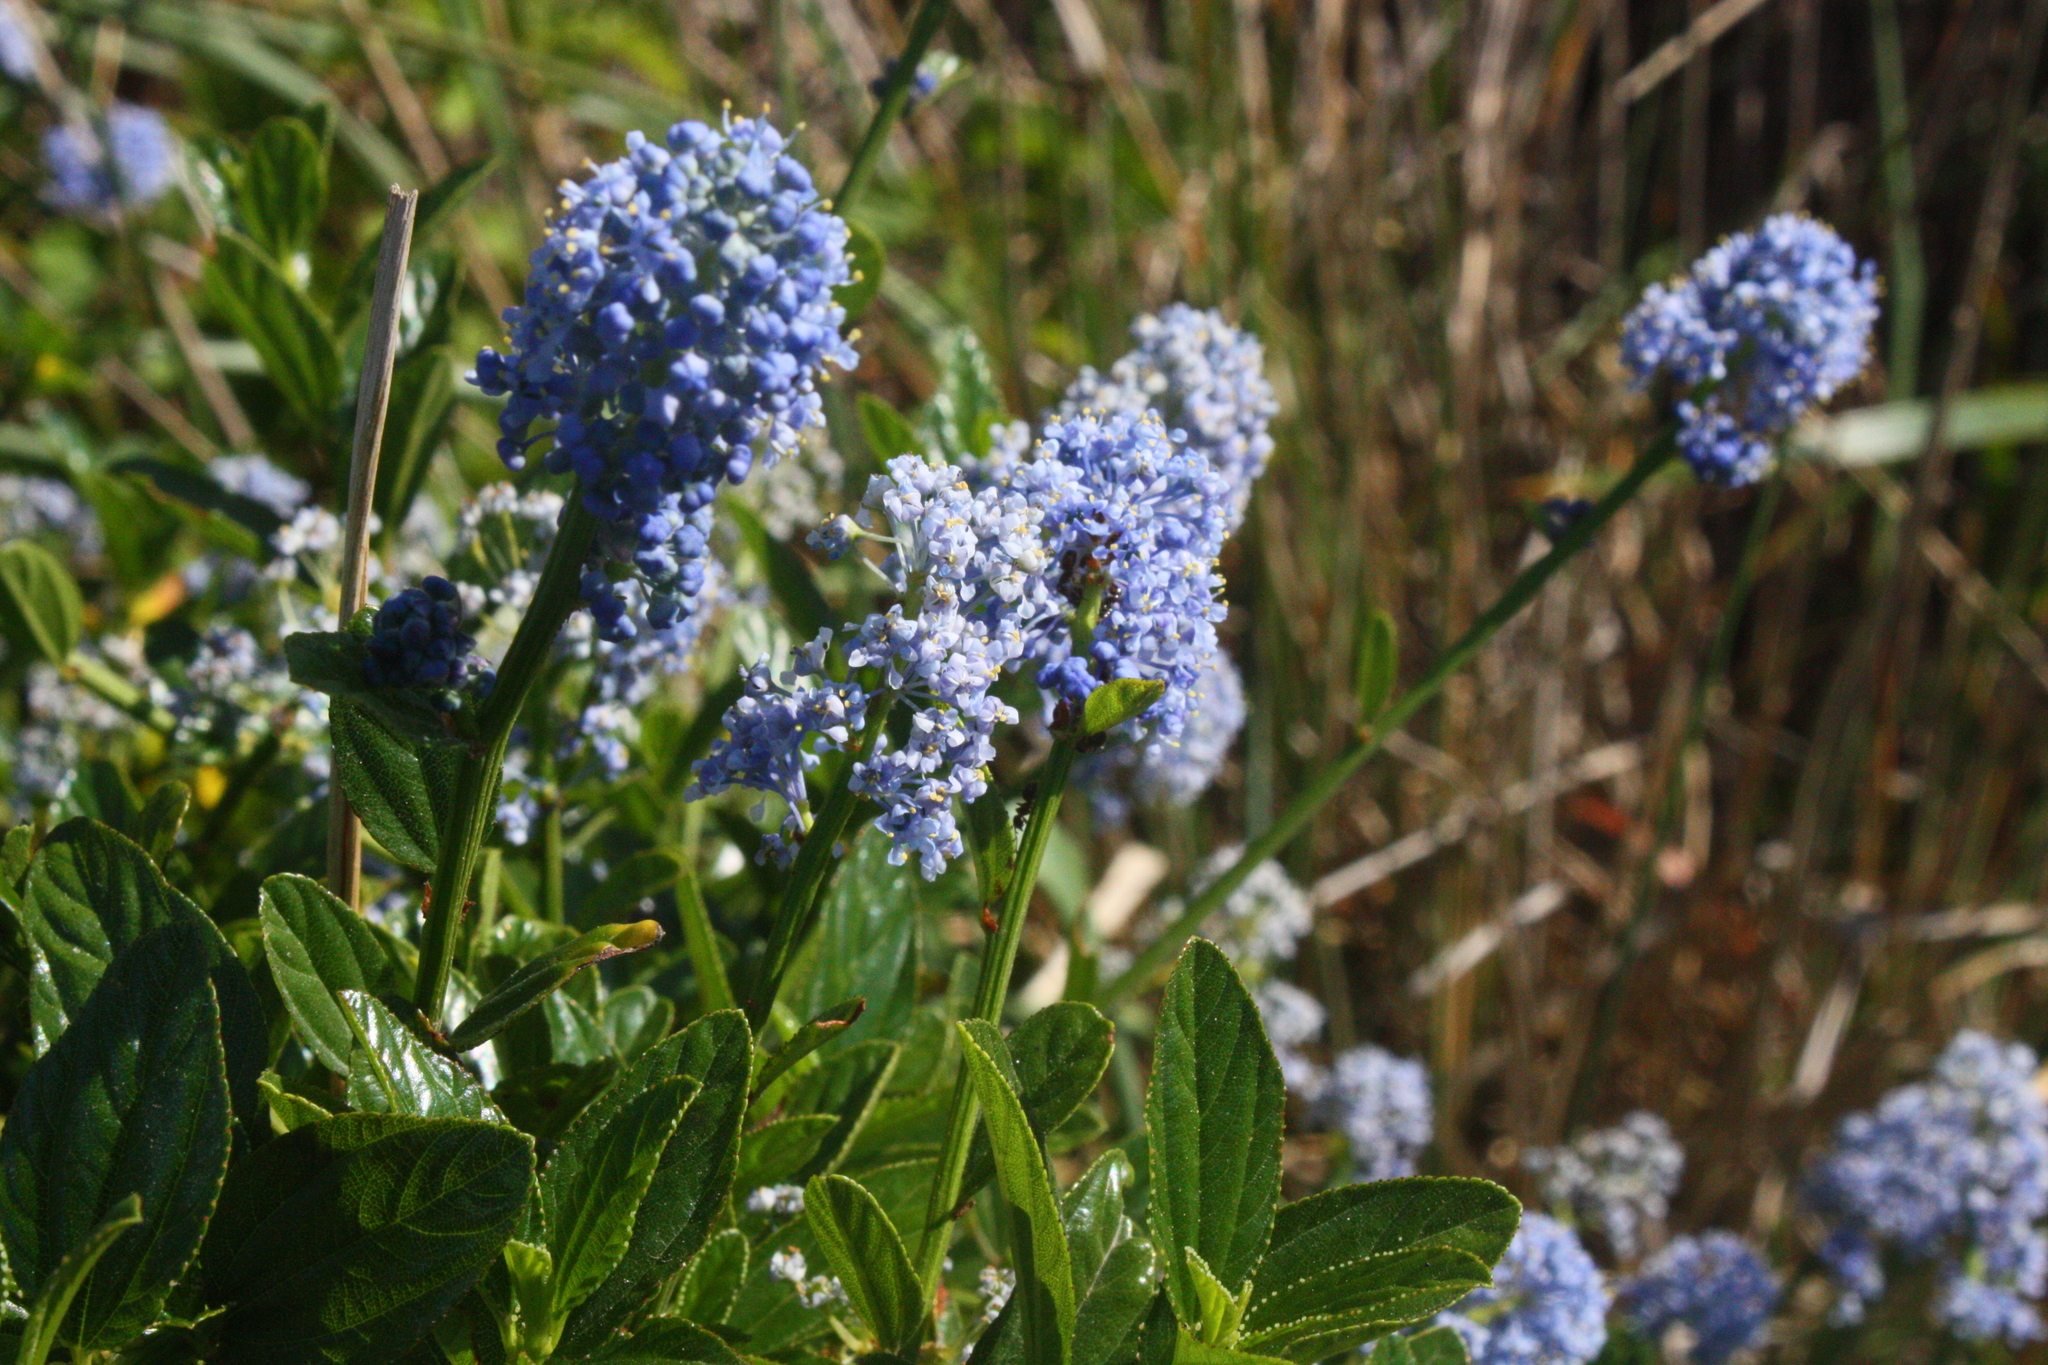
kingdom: Plantae
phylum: Tracheophyta
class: Magnoliopsida
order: Rosales
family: Rhamnaceae
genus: Ceanothus
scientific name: Ceanothus thyrsiflorus
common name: California-lilac
